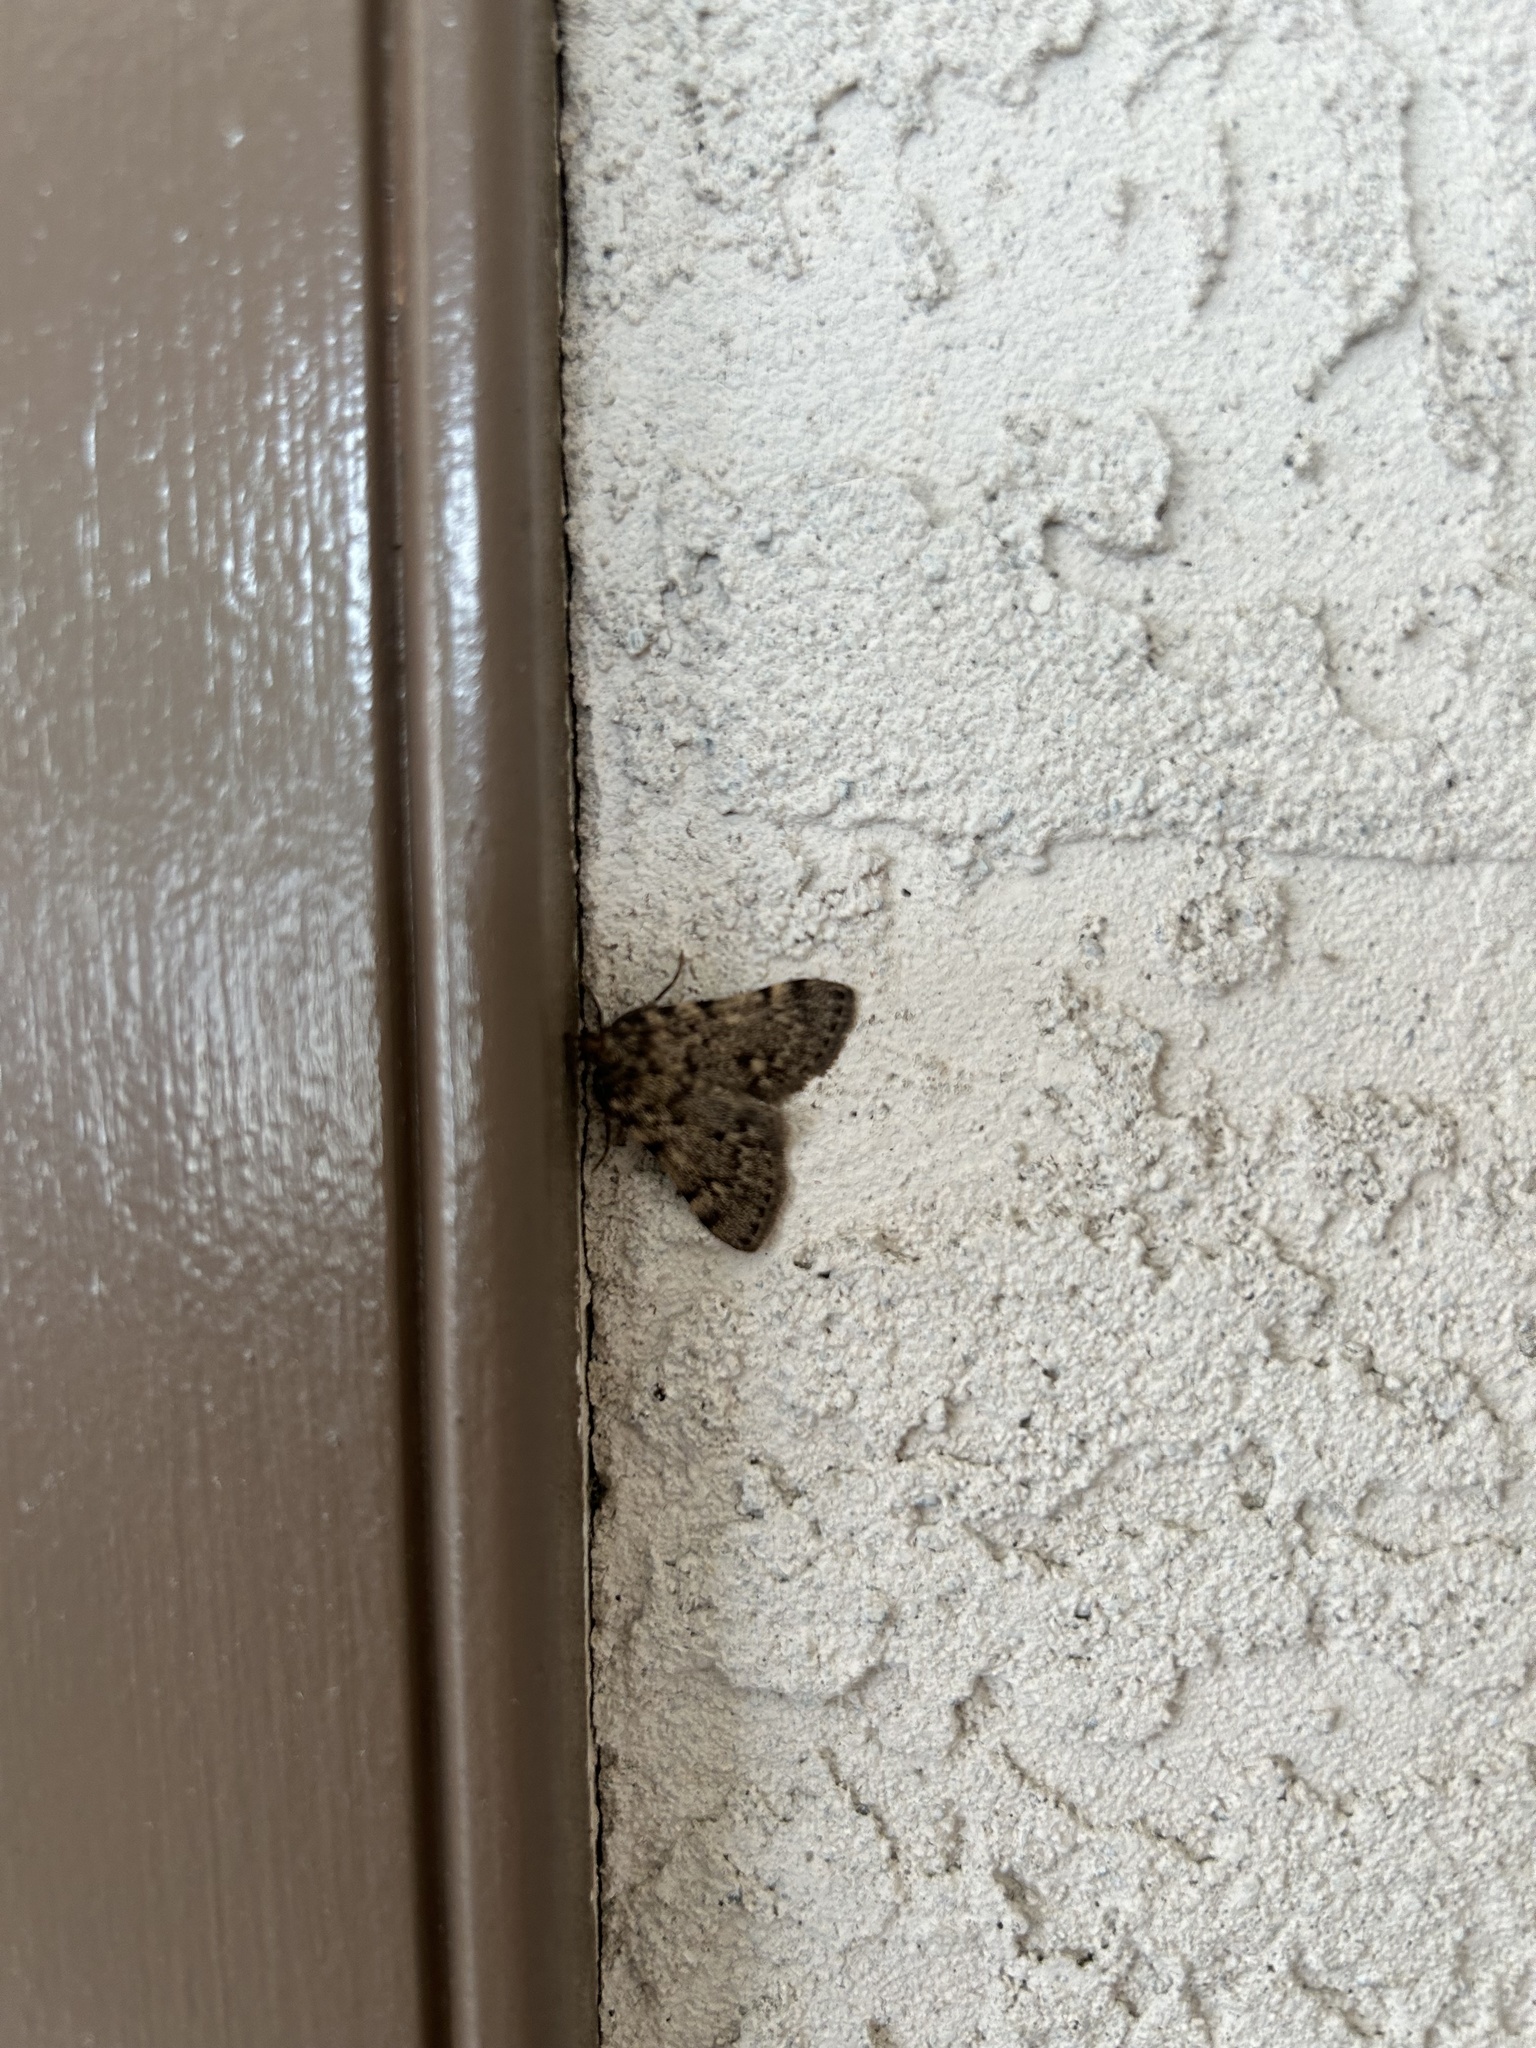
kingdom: Animalia
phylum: Arthropoda
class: Insecta
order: Lepidoptera
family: Pyralidae
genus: Aglossa
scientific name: Aglossa pinguinalis
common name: Large tabby
